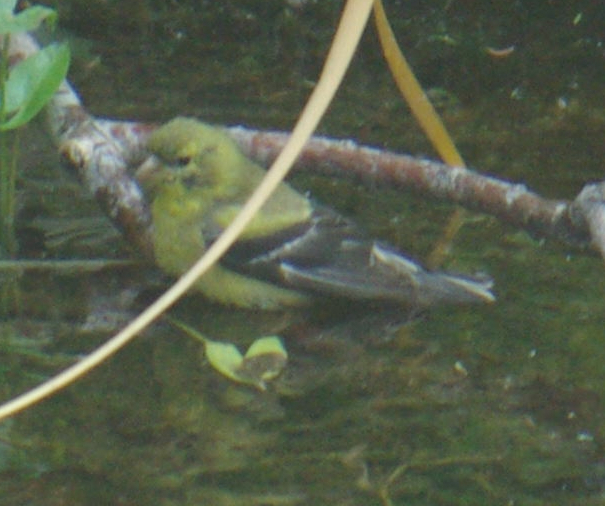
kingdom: Animalia
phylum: Chordata
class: Aves
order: Passeriformes
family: Fringillidae
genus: Spinus
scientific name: Spinus tristis
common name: American goldfinch
